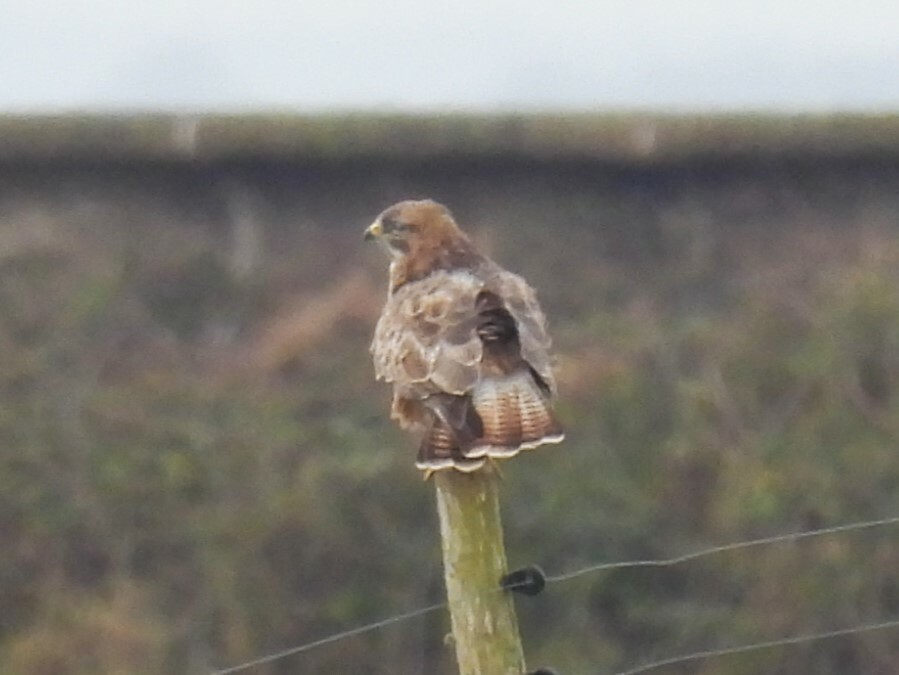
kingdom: Animalia
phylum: Chordata
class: Aves
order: Accipitriformes
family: Accipitridae
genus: Buteo
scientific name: Buteo buteo
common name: Common buzzard
